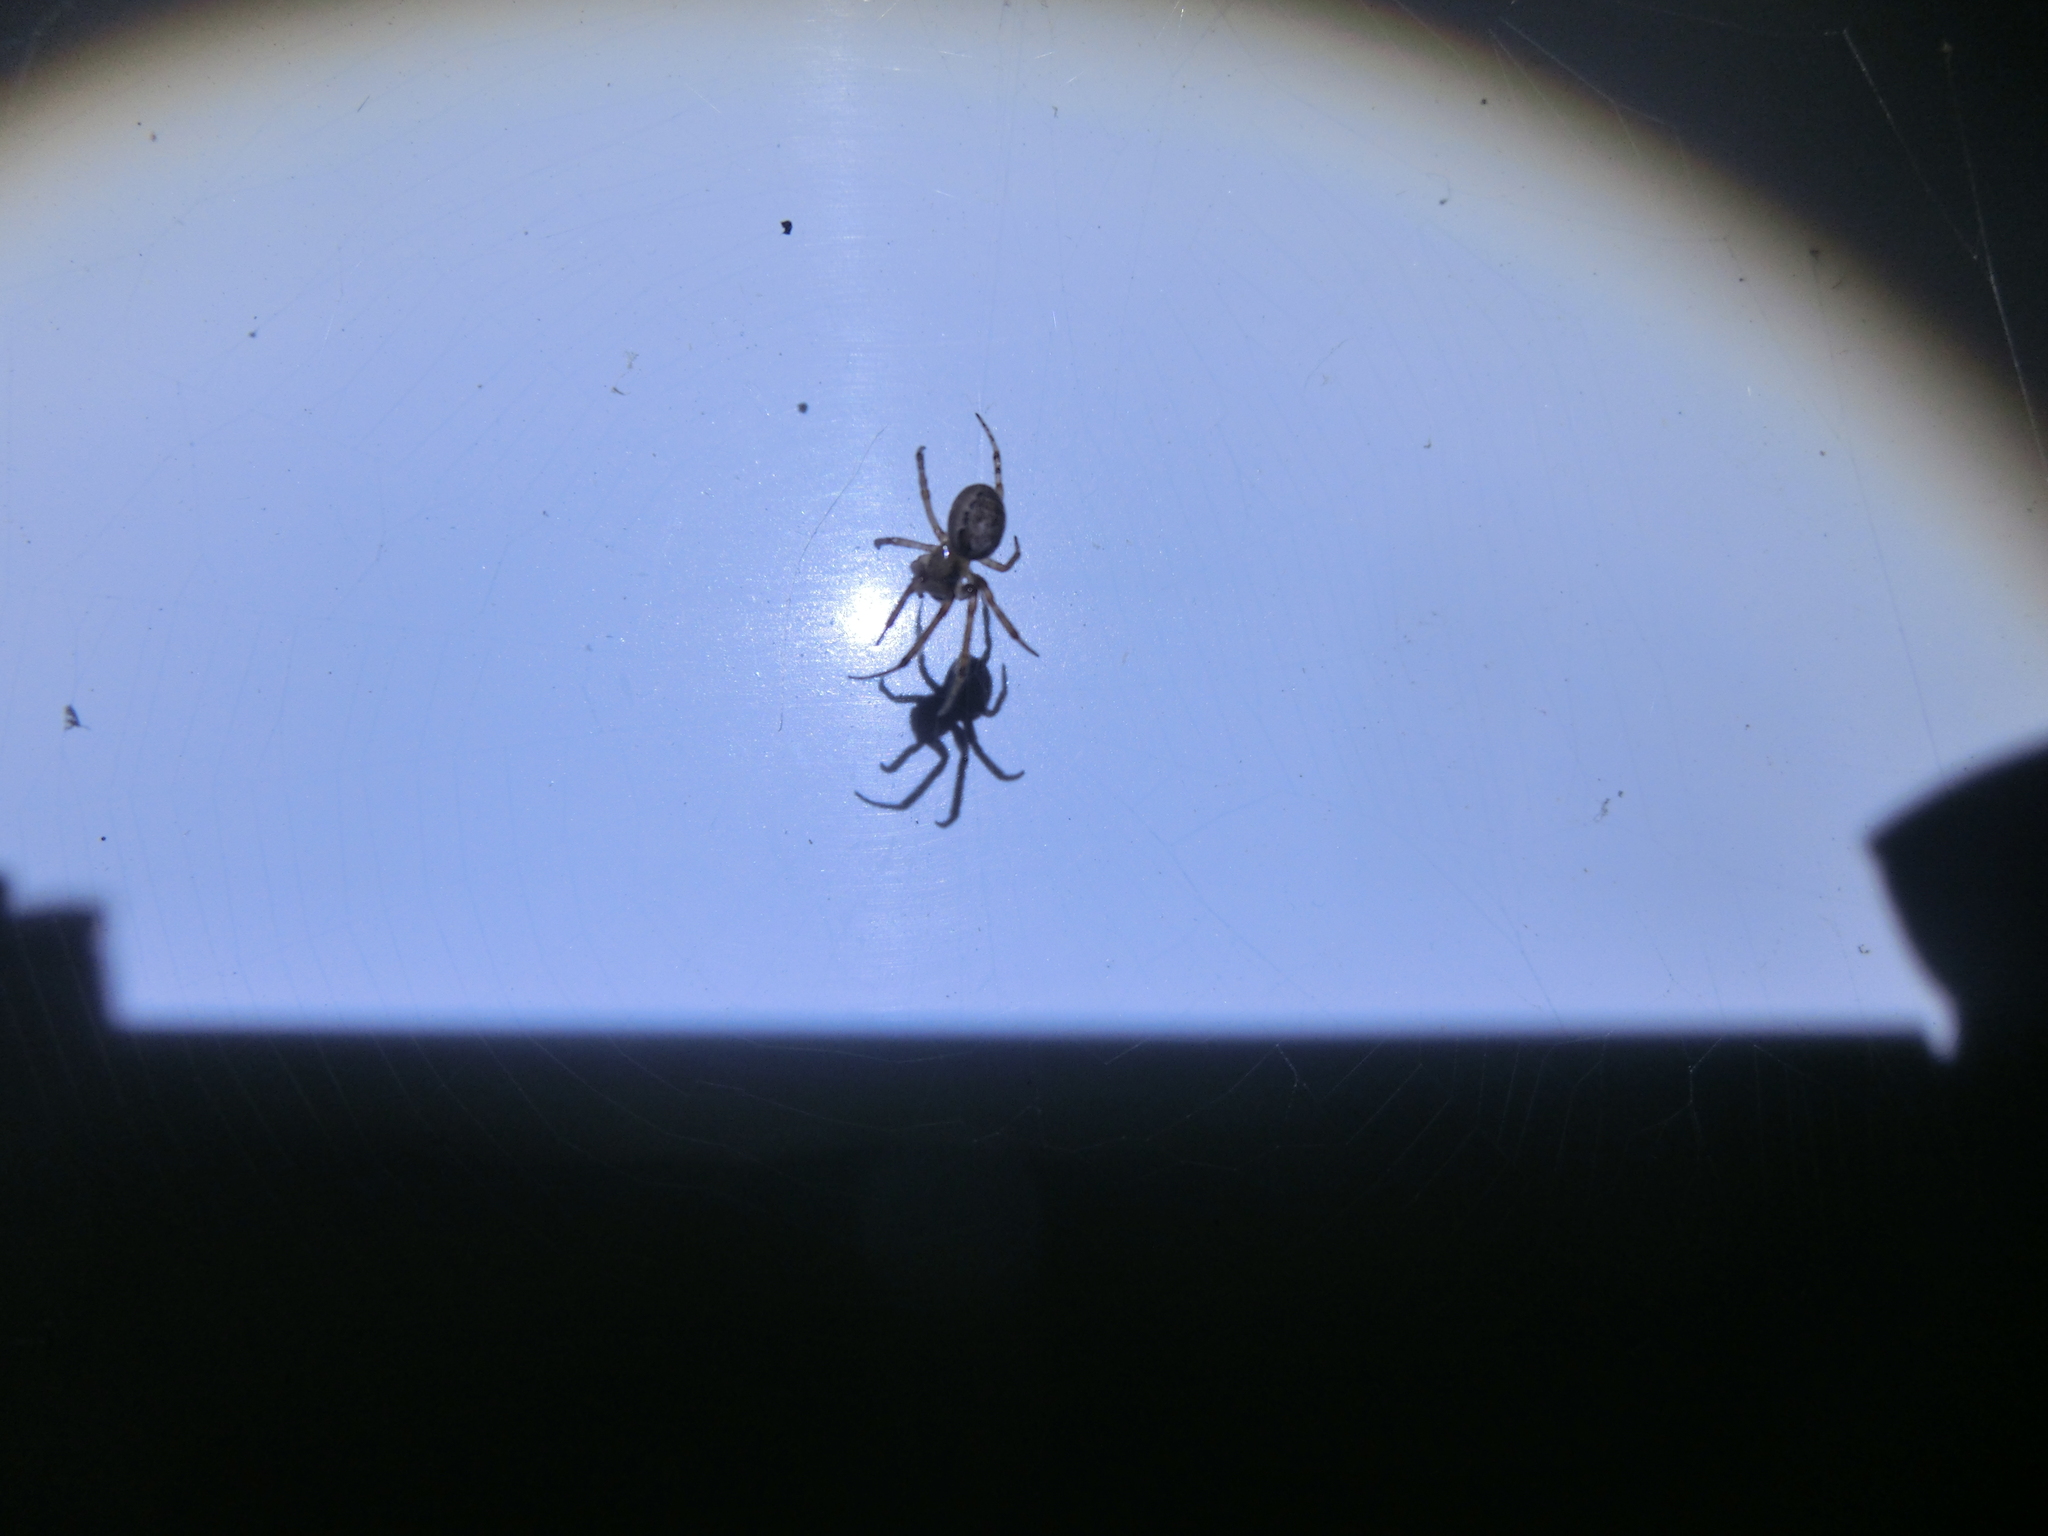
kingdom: Animalia
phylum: Arthropoda
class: Arachnida
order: Araneae
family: Araneidae
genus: Zygiella
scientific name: Zygiella x-notata
